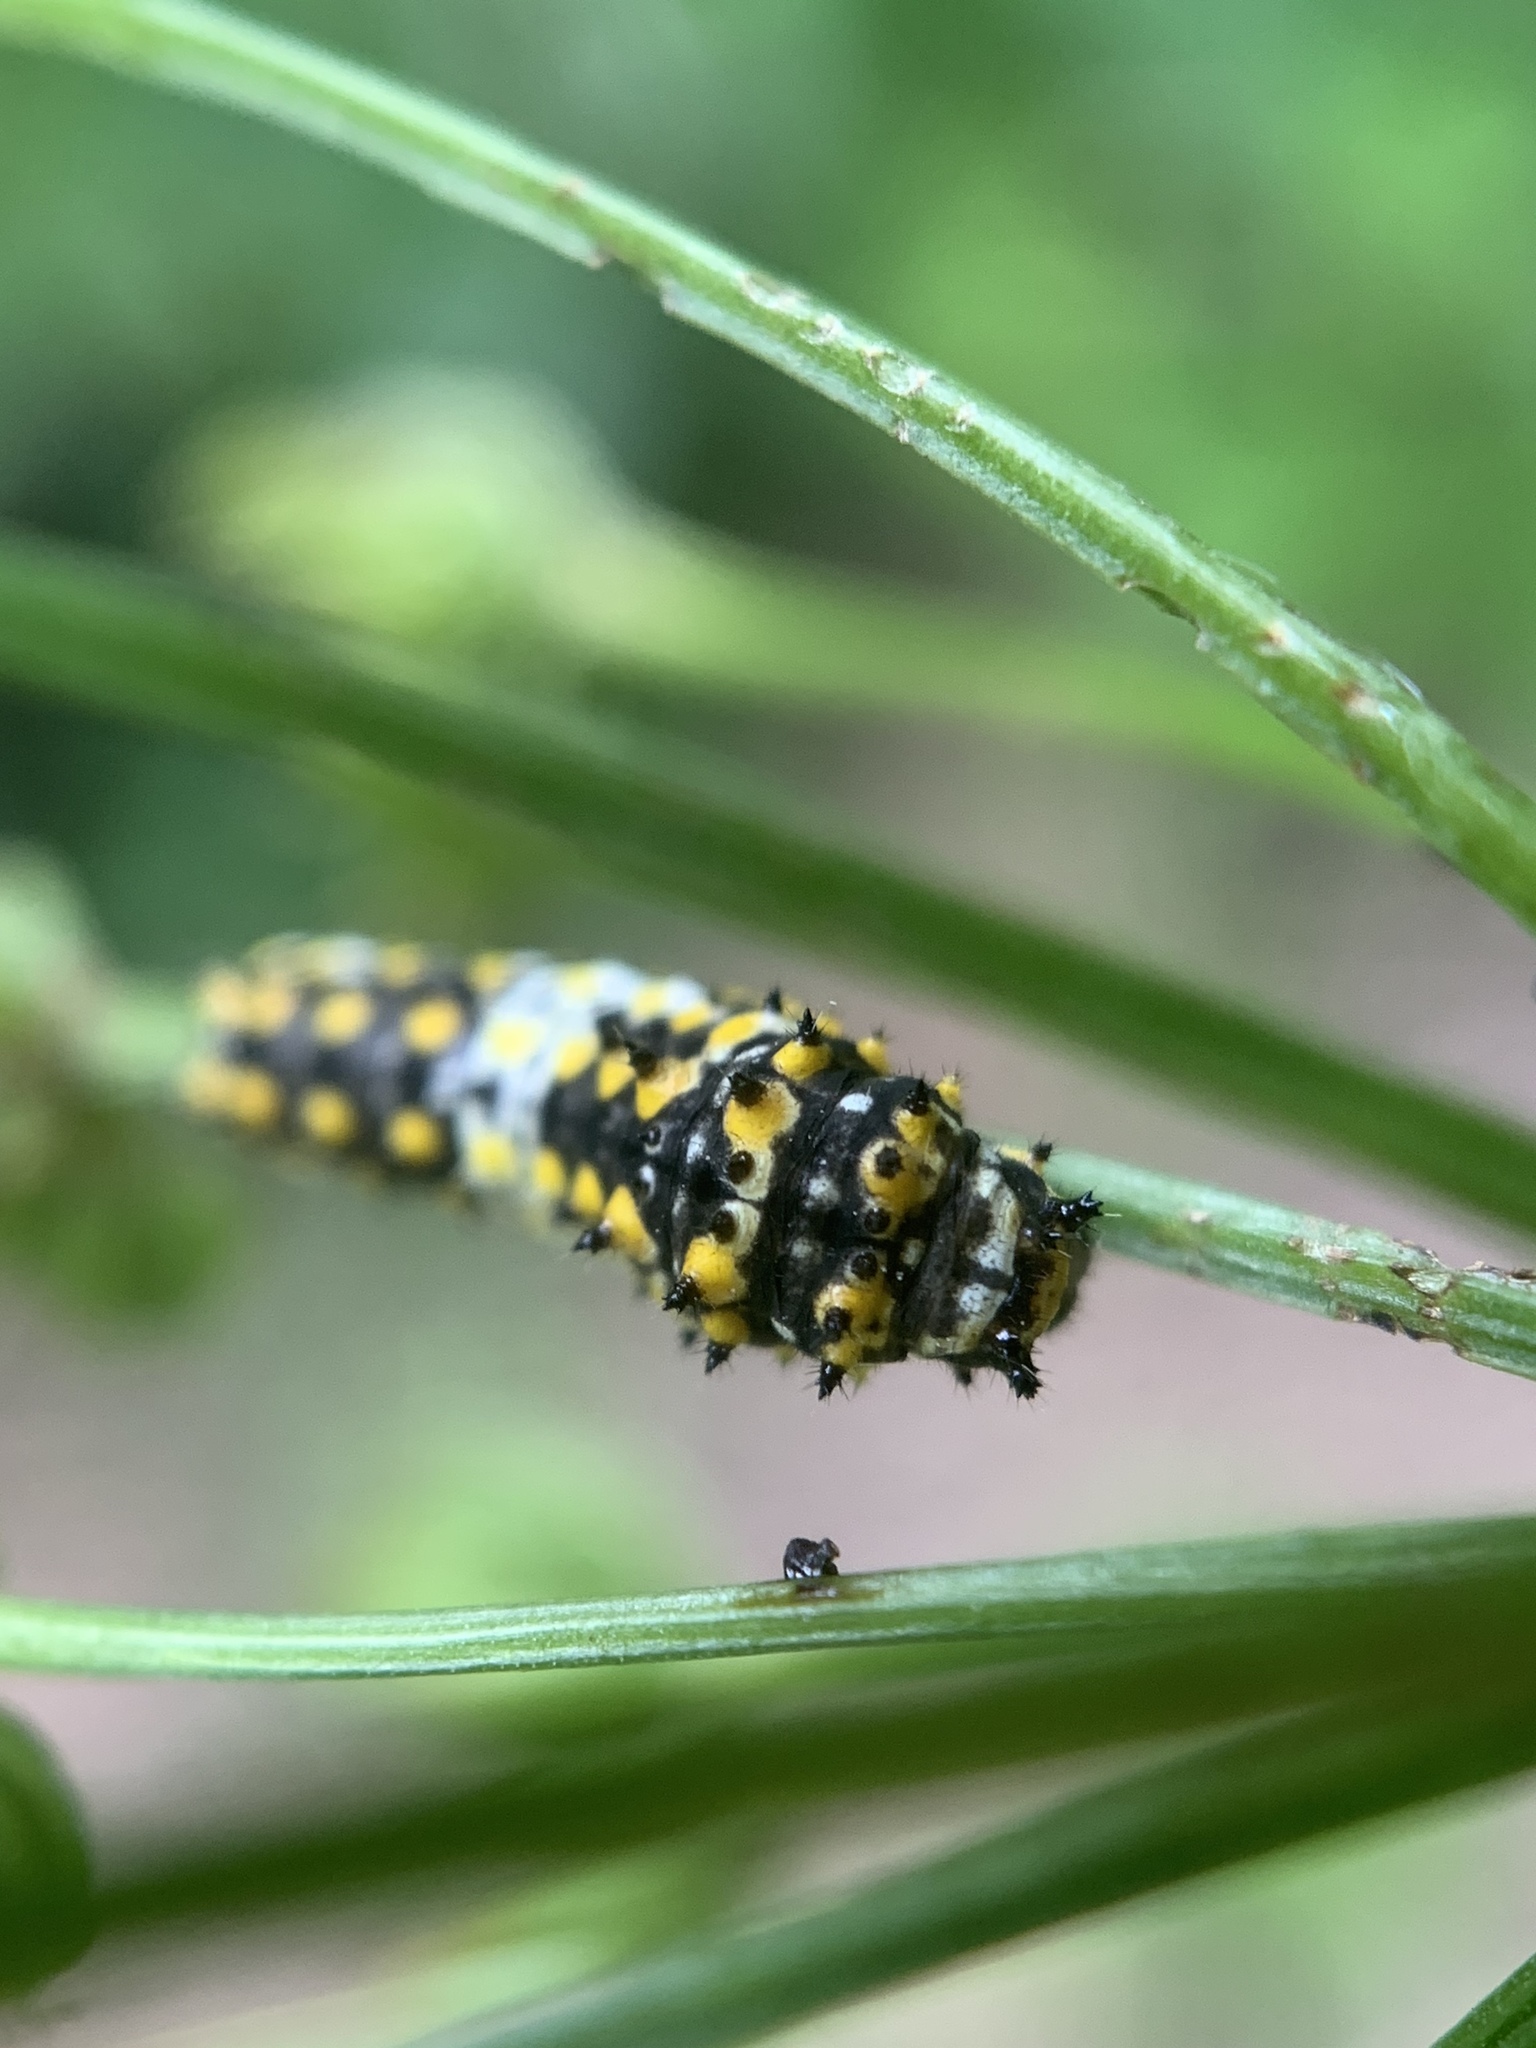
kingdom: Animalia
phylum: Arthropoda
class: Insecta
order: Lepidoptera
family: Papilionidae
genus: Papilio
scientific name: Papilio polyxenes
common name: Black swallowtail
